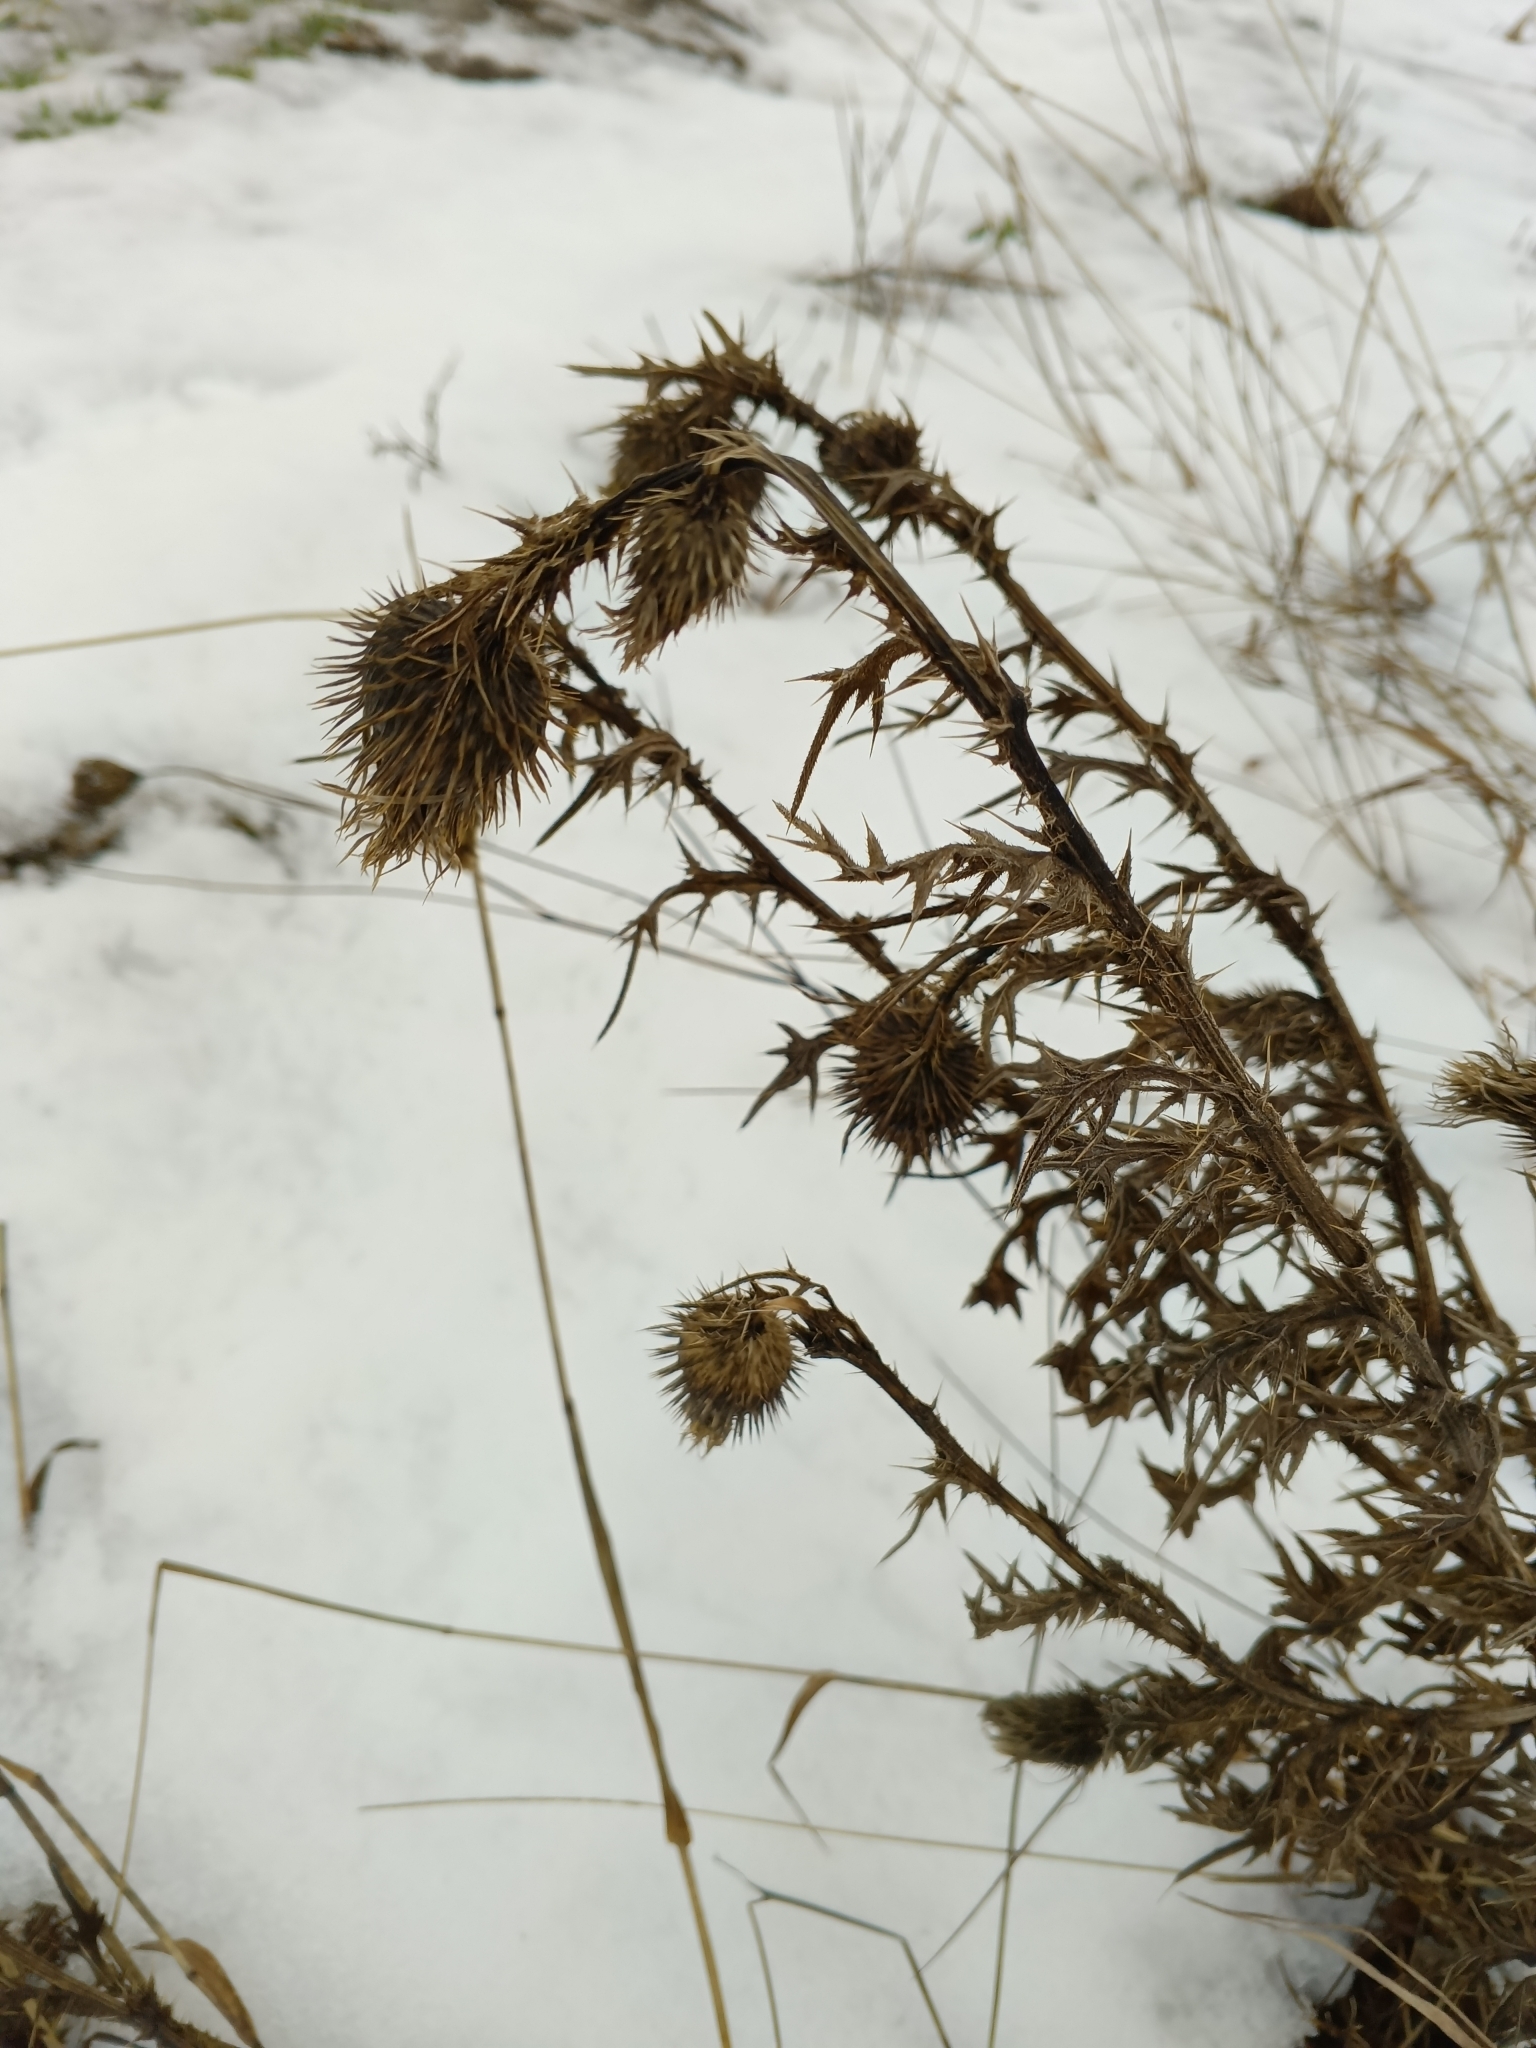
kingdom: Plantae
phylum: Tracheophyta
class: Magnoliopsida
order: Asterales
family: Asteraceae
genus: Cirsium
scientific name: Cirsium vulgare
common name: Bull thistle
